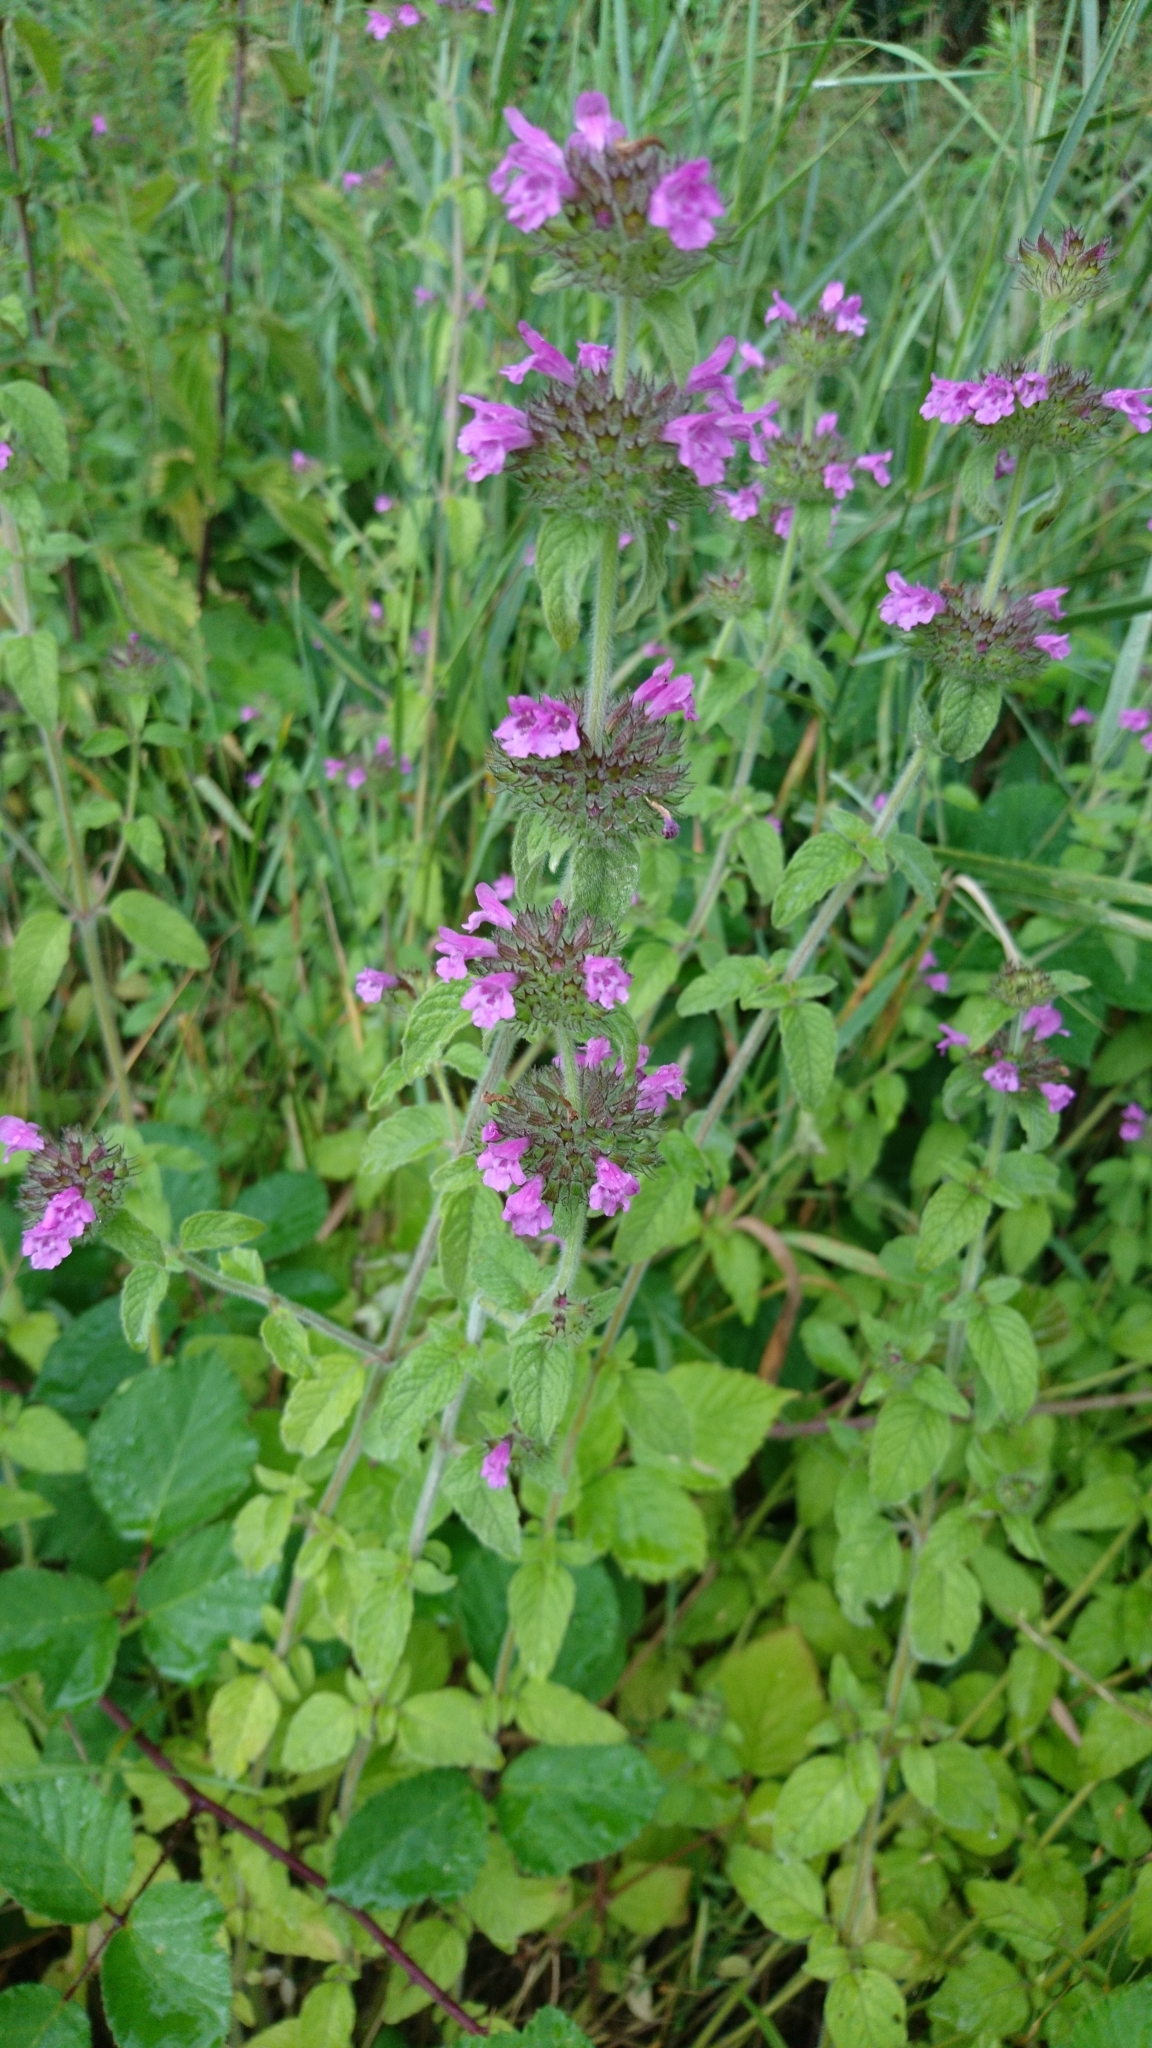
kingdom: Plantae
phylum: Tracheophyta
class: Magnoliopsida
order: Lamiales
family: Lamiaceae
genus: Clinopodium
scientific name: Clinopodium vulgare
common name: Wild basil
